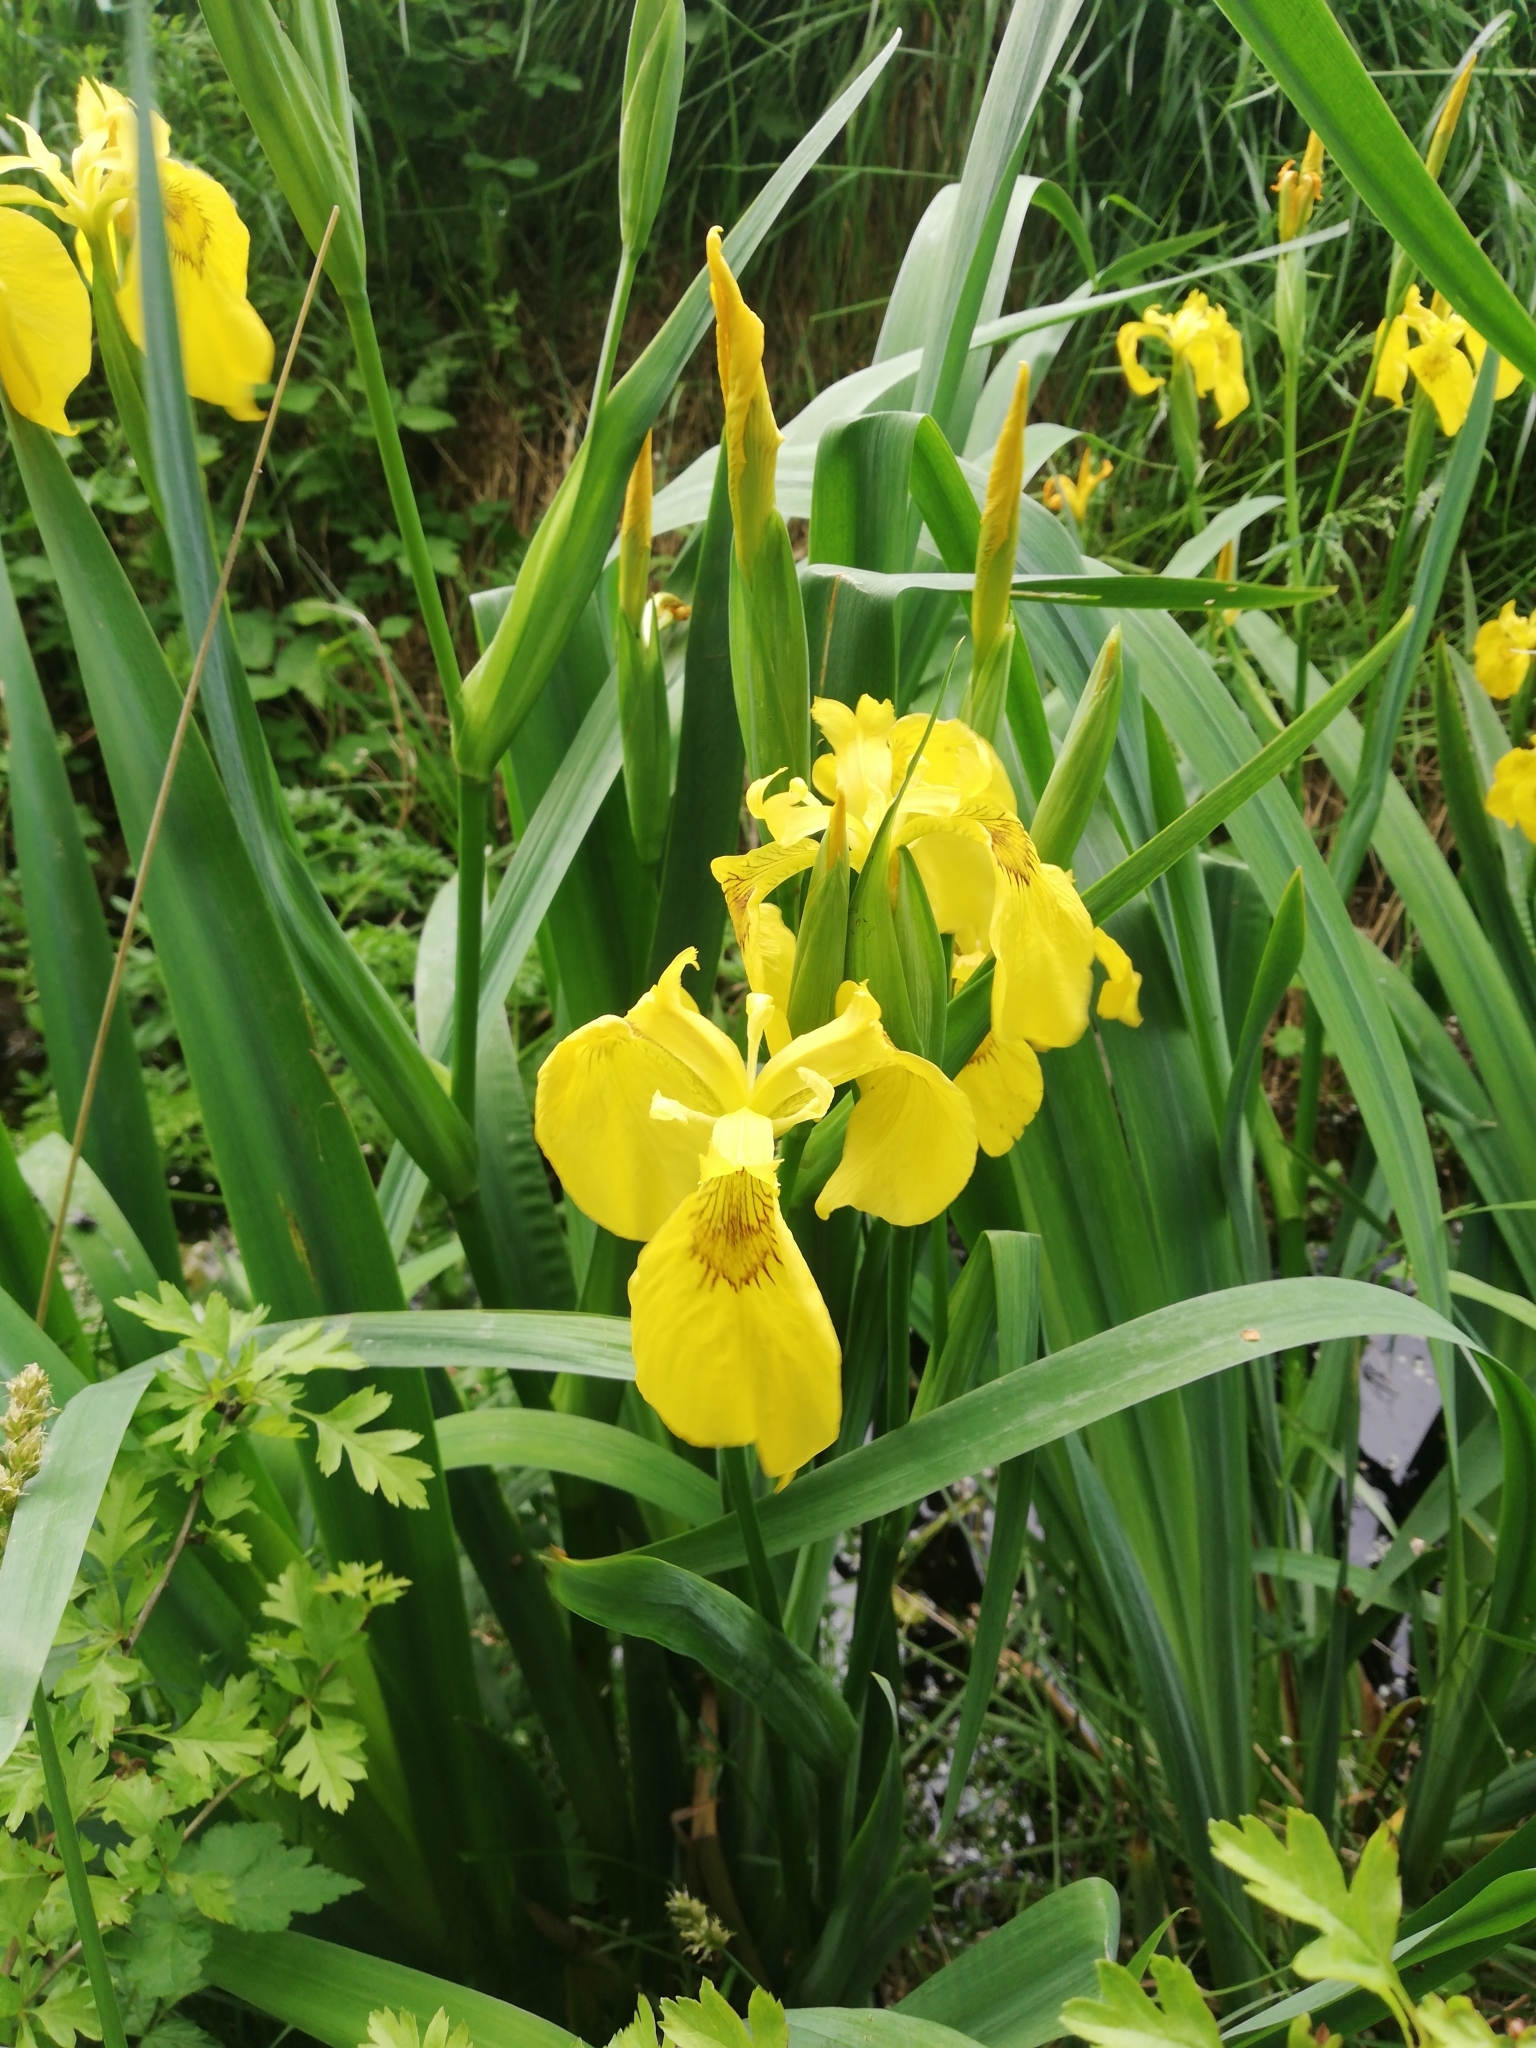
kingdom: Plantae
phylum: Tracheophyta
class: Liliopsida
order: Asparagales
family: Iridaceae
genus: Iris
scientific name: Iris pseudacorus
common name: Yellow flag
